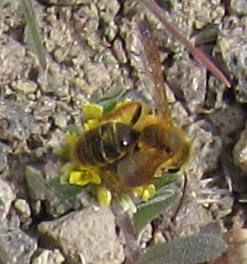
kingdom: Animalia
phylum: Arthropoda
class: Insecta
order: Hymenoptera
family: Andrenidae
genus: Andrena
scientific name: Andrena prunorum
